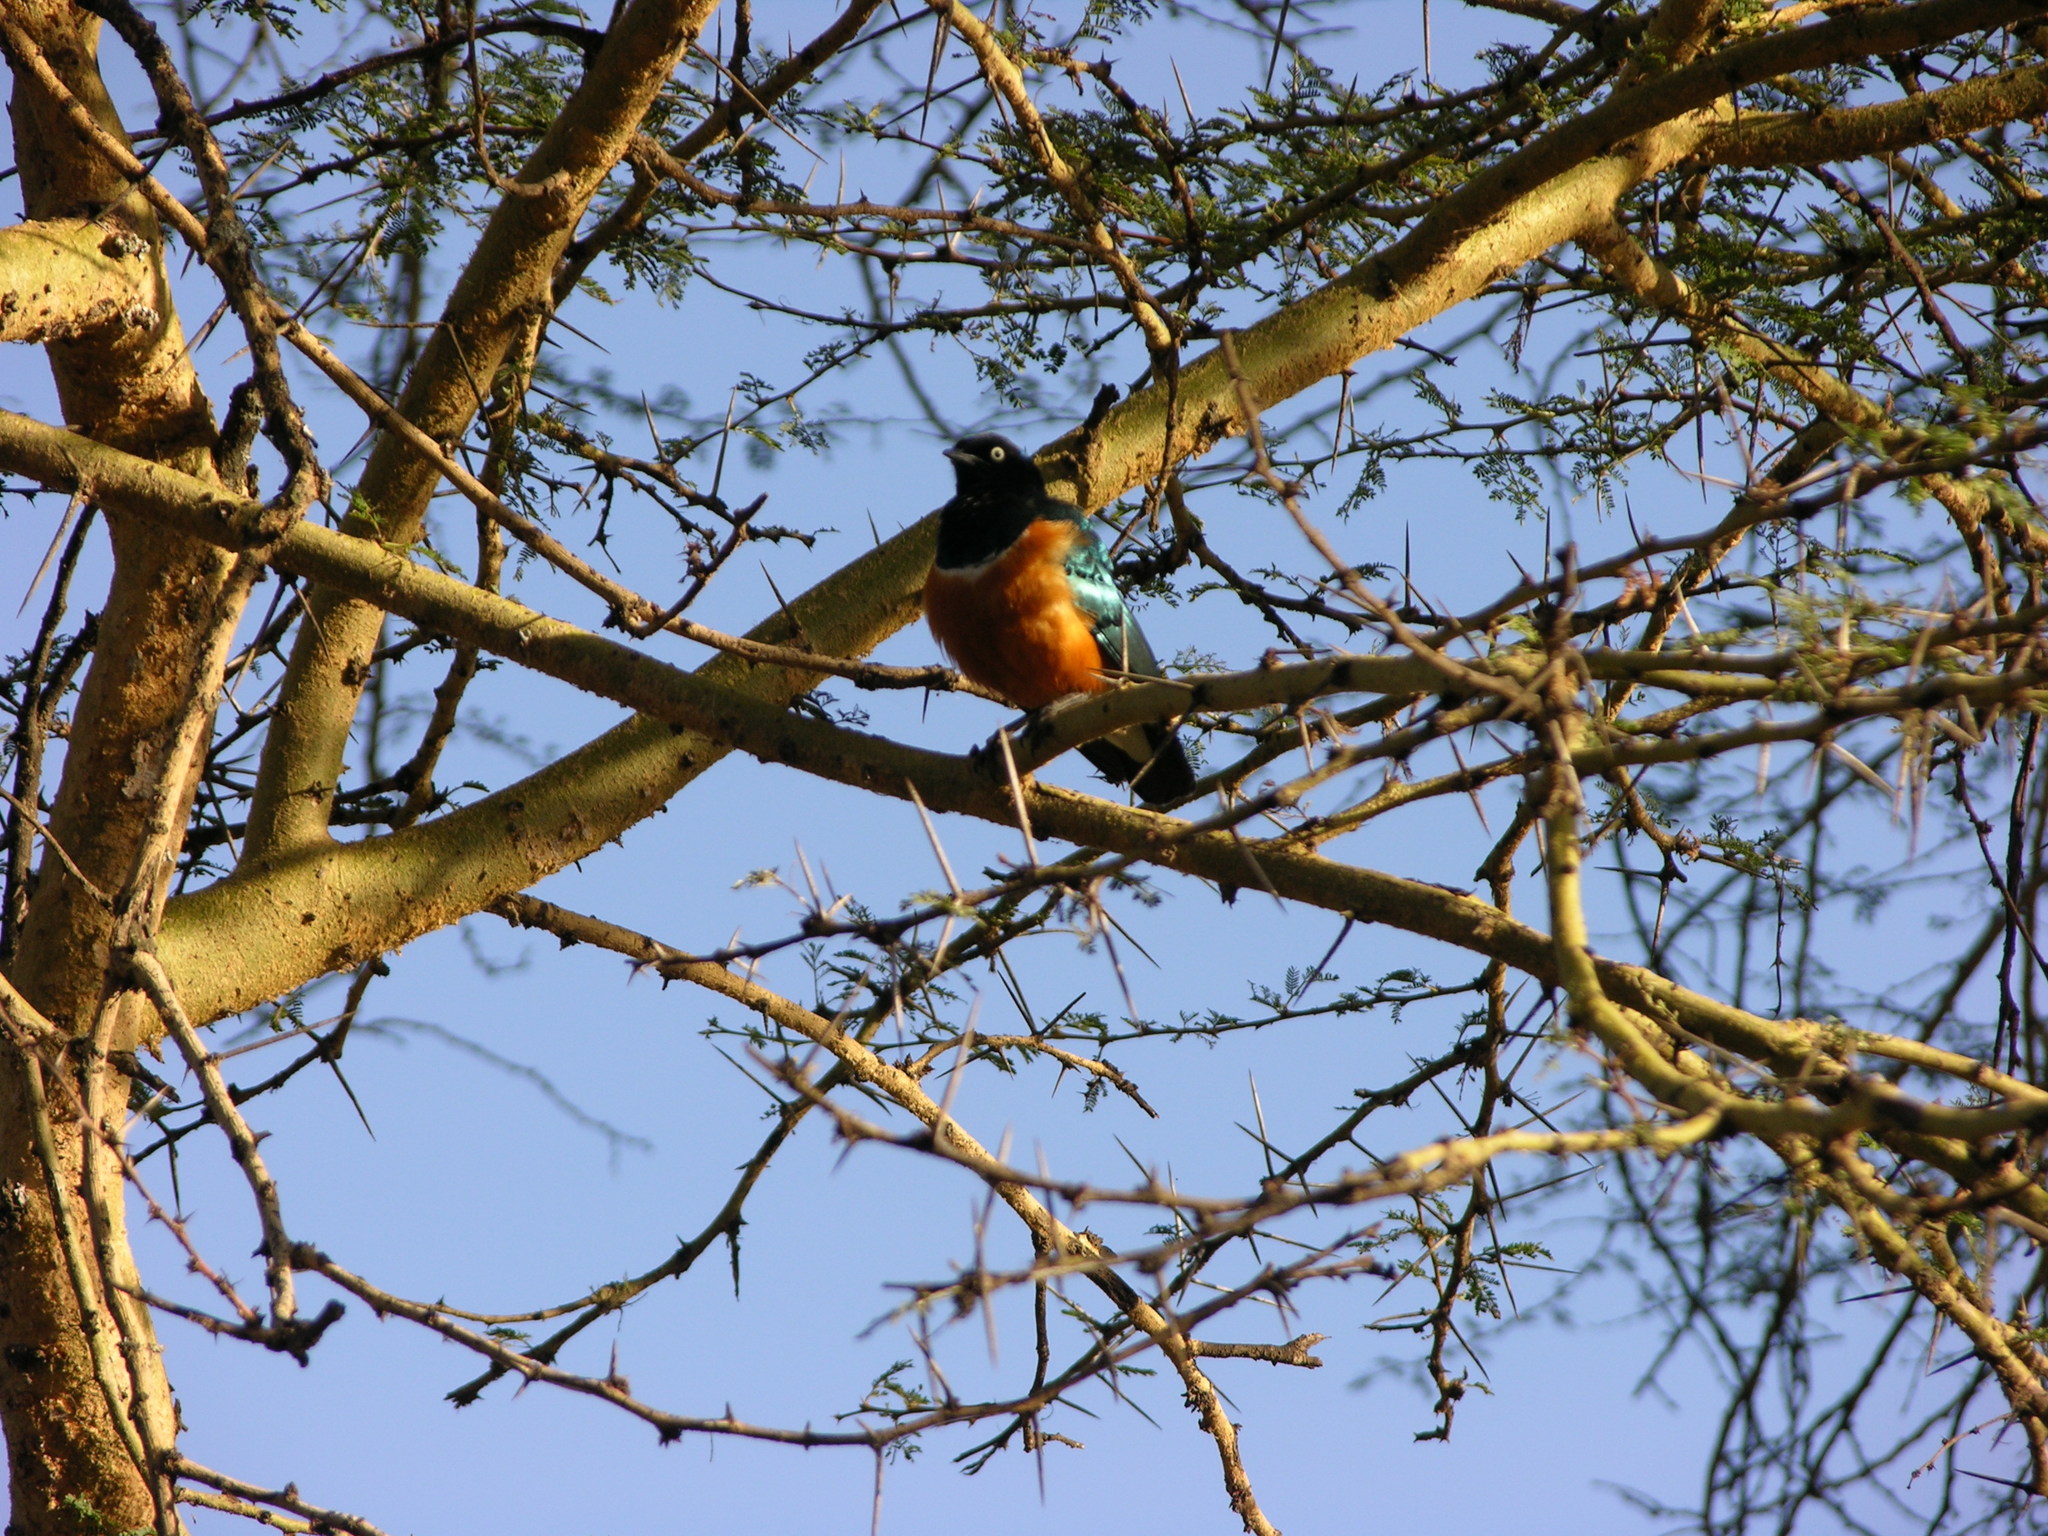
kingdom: Animalia
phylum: Chordata
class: Aves
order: Passeriformes
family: Sturnidae
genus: Lamprotornis
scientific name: Lamprotornis superbus
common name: Superb starling
